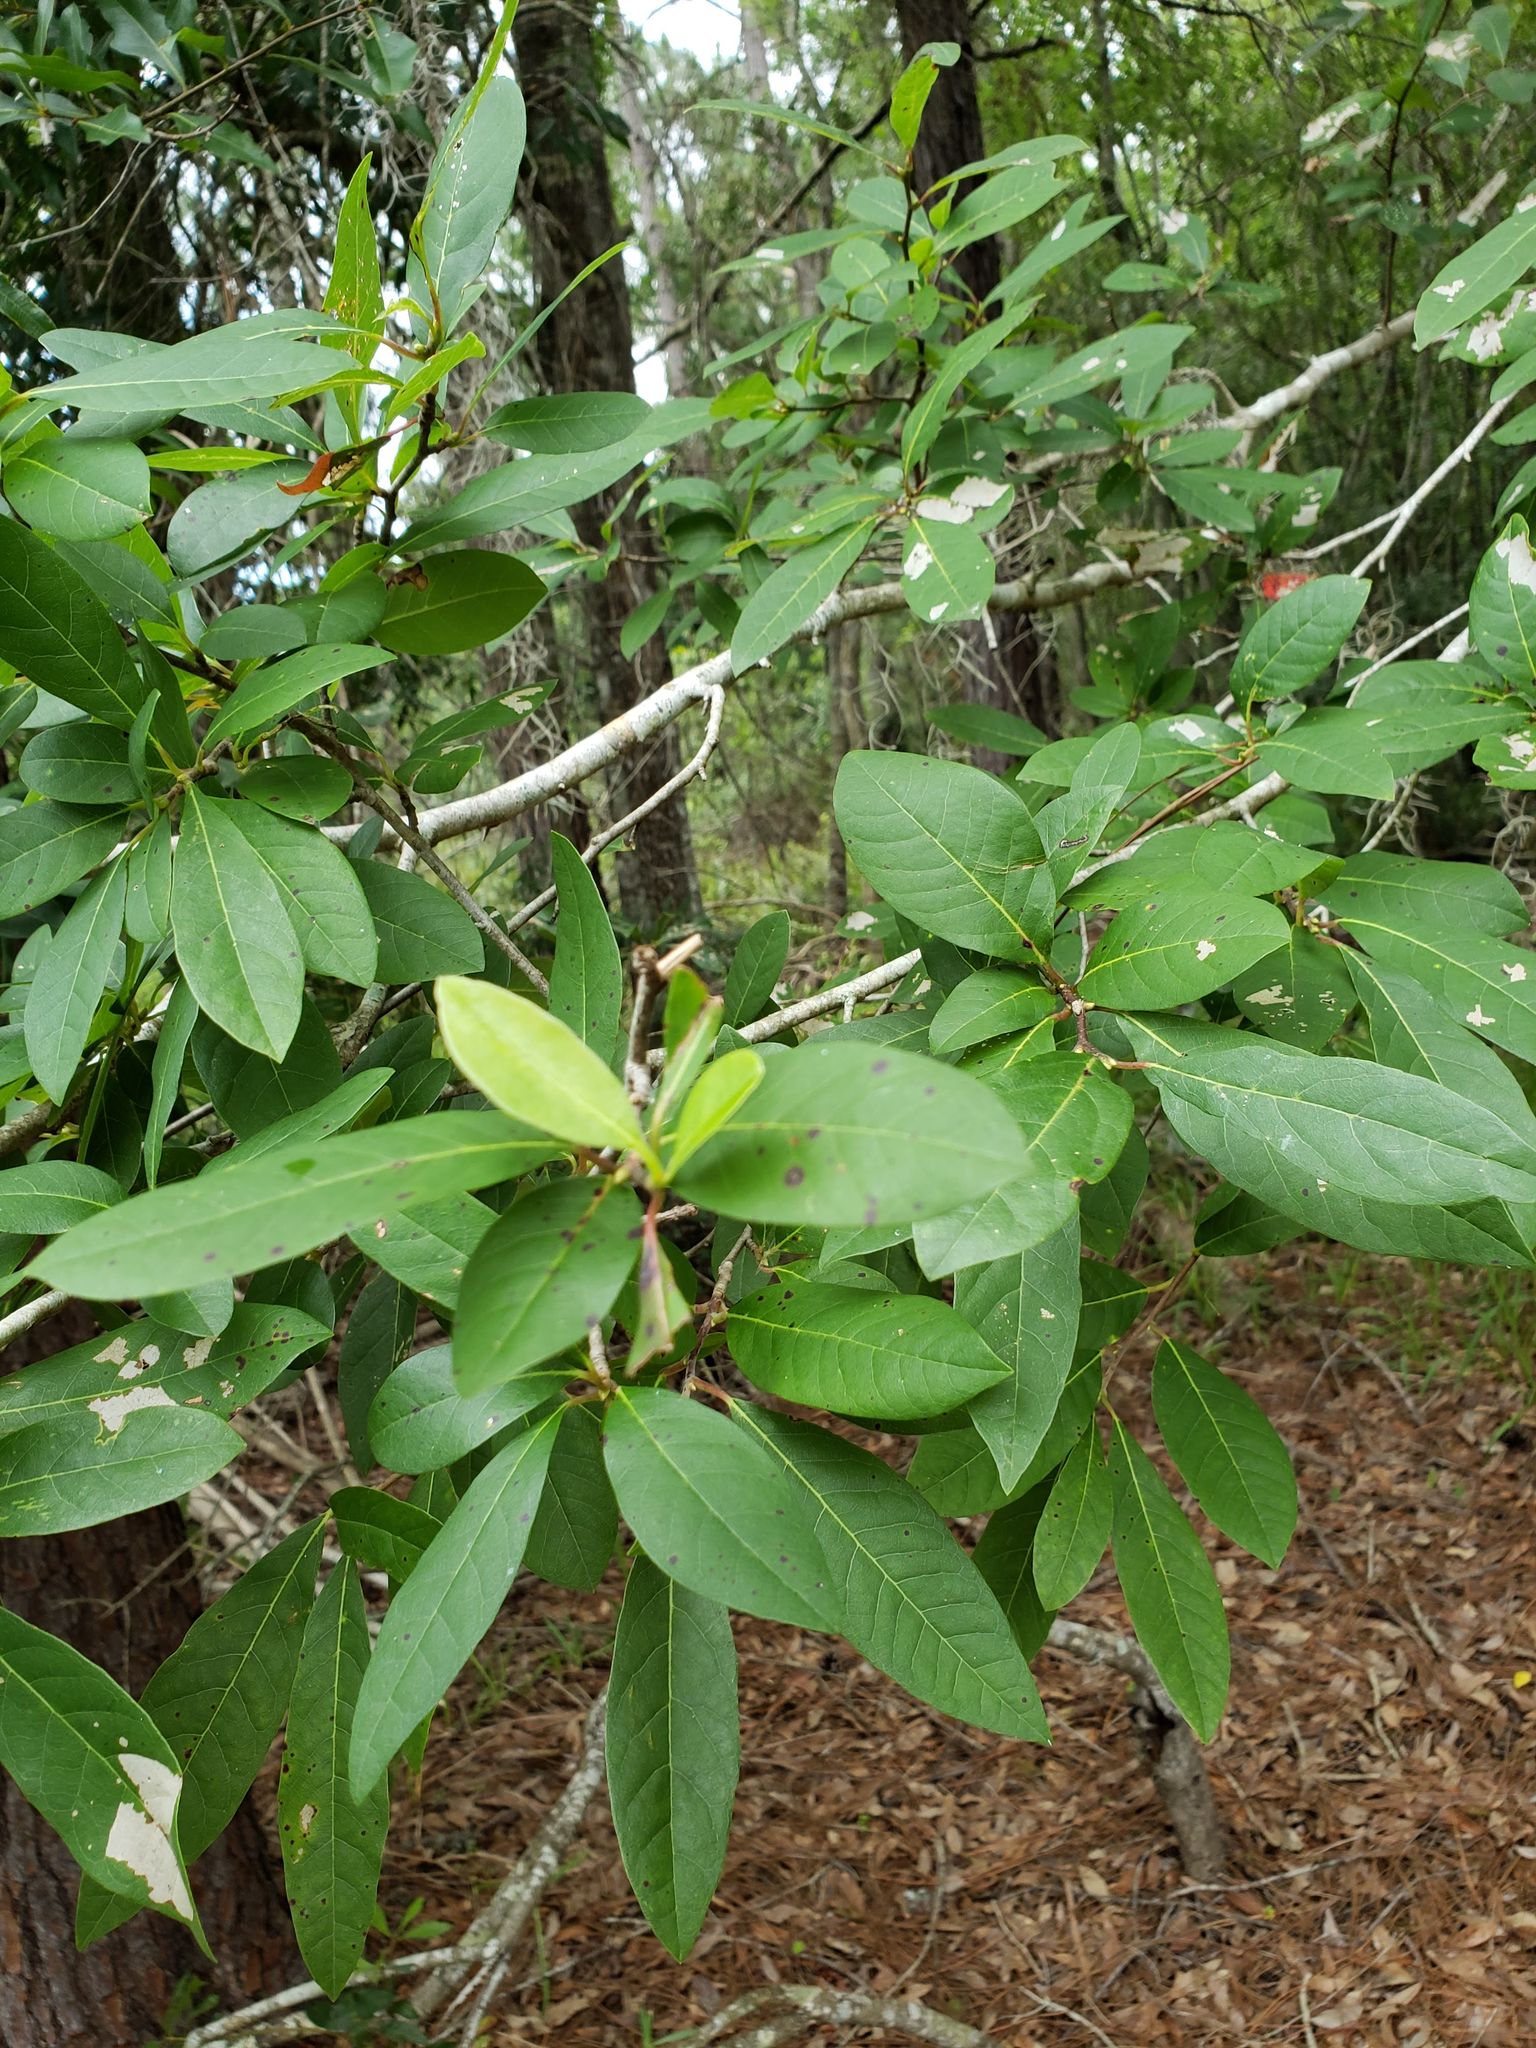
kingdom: Plantae
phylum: Tracheophyta
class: Magnoliopsida
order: Cornales
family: Nyssaceae
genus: Nyssa
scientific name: Nyssa biflora
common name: Swamp blackgum
